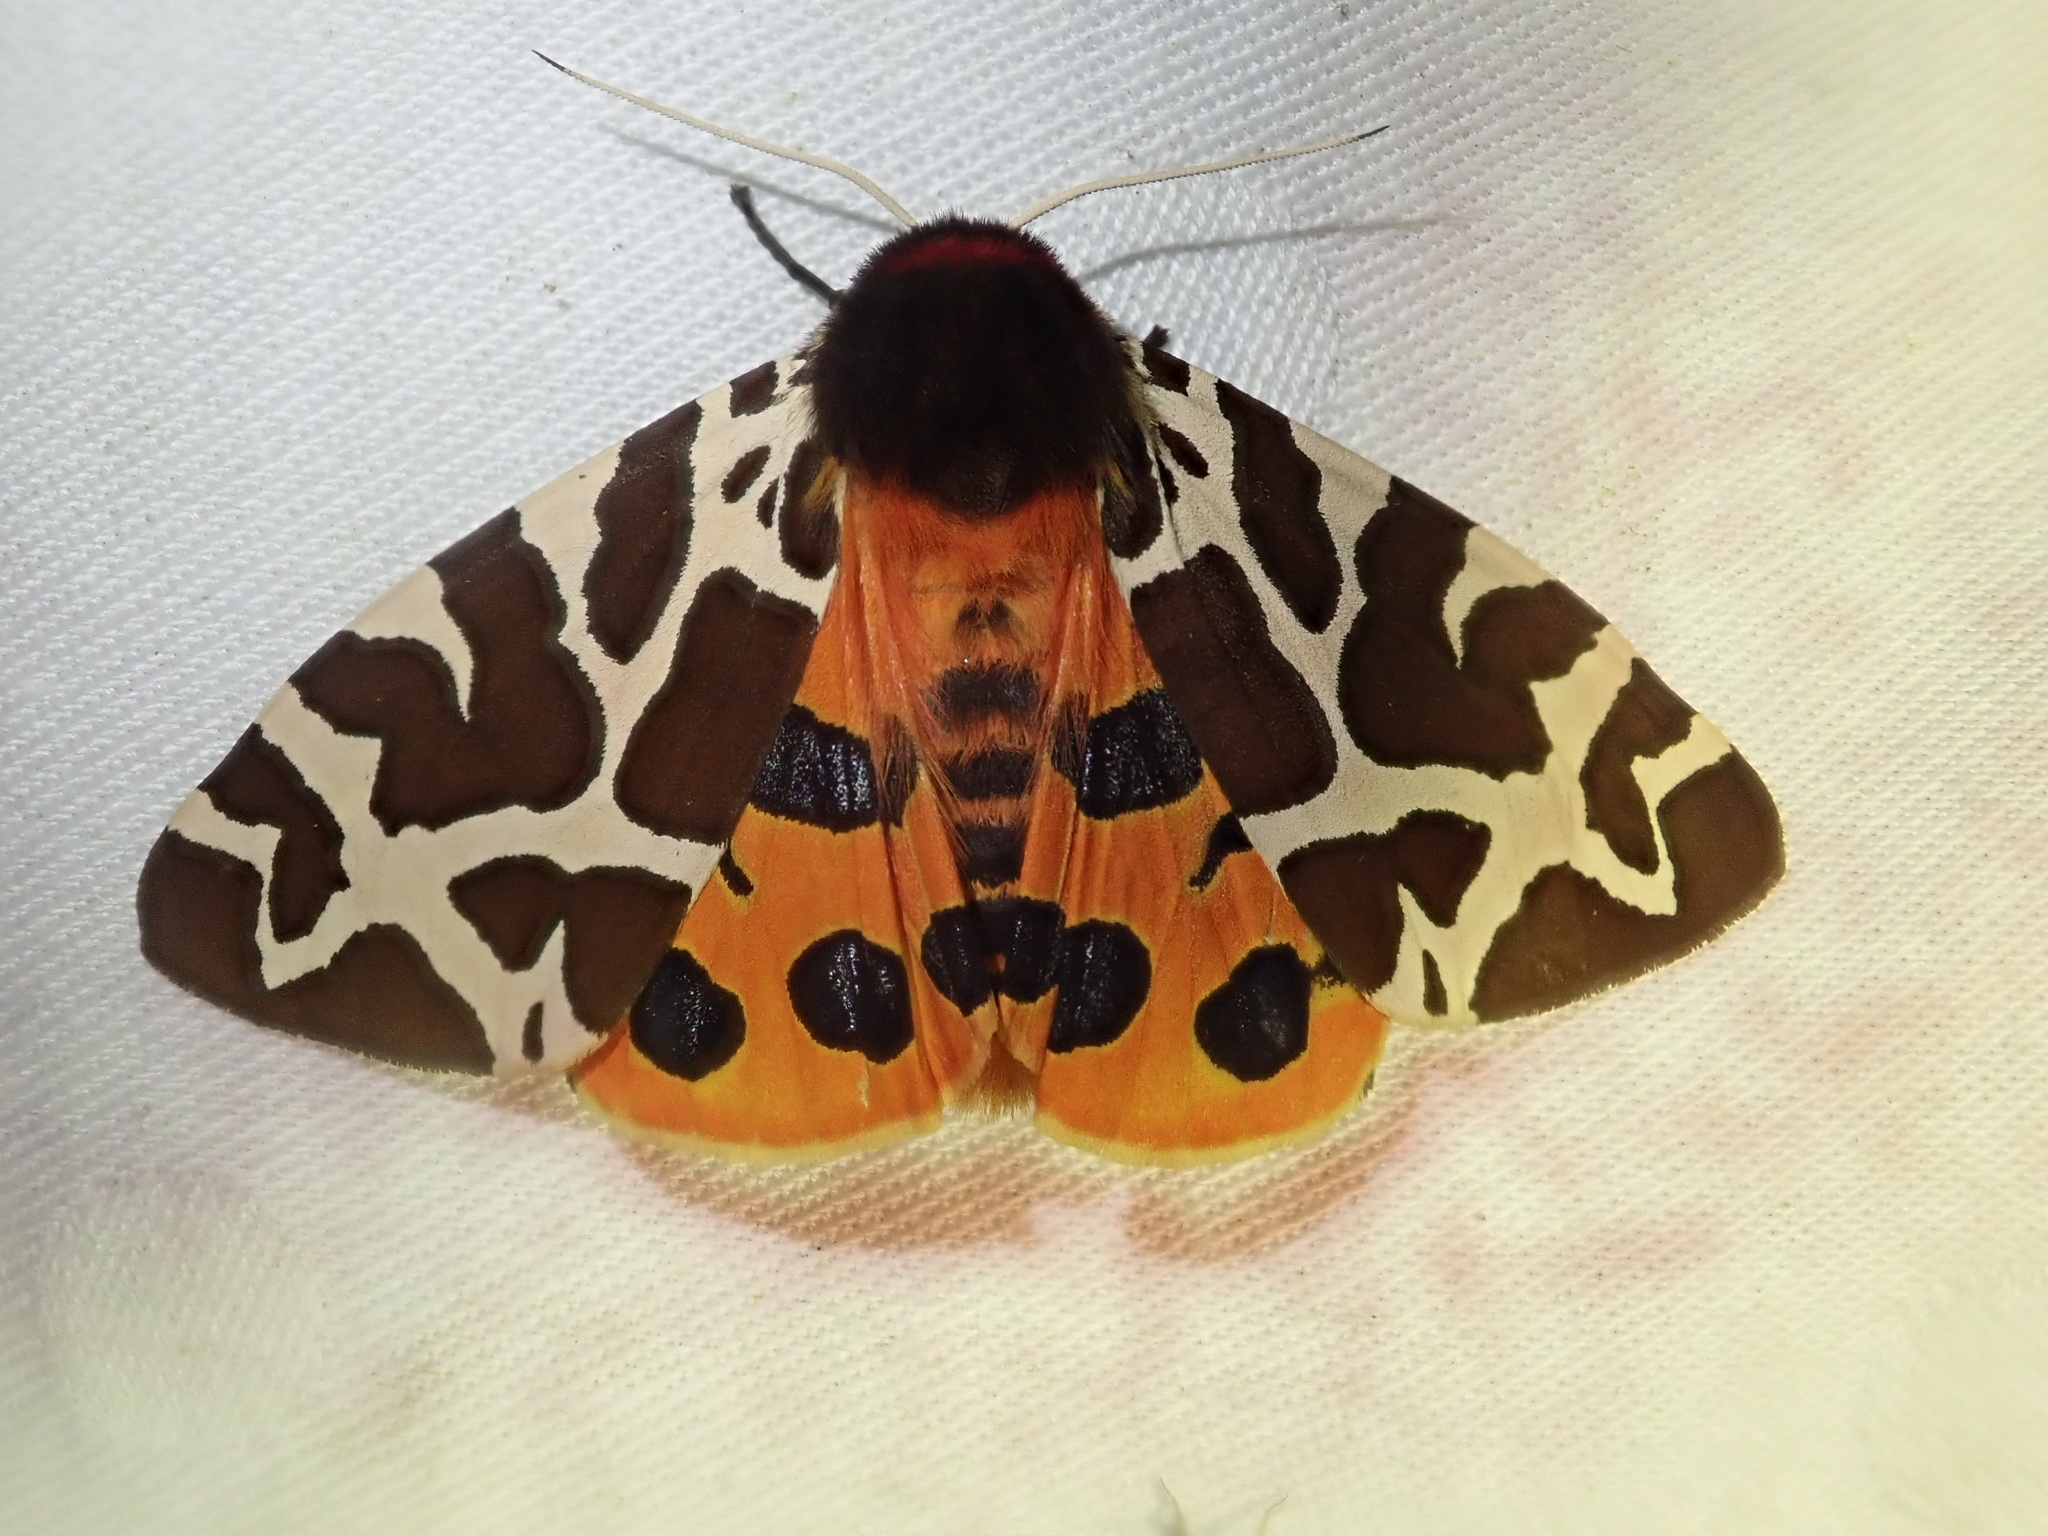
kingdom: Animalia
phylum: Arthropoda
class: Insecta
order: Lepidoptera
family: Erebidae
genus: Arctia
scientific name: Arctia caja
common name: Garden tiger
